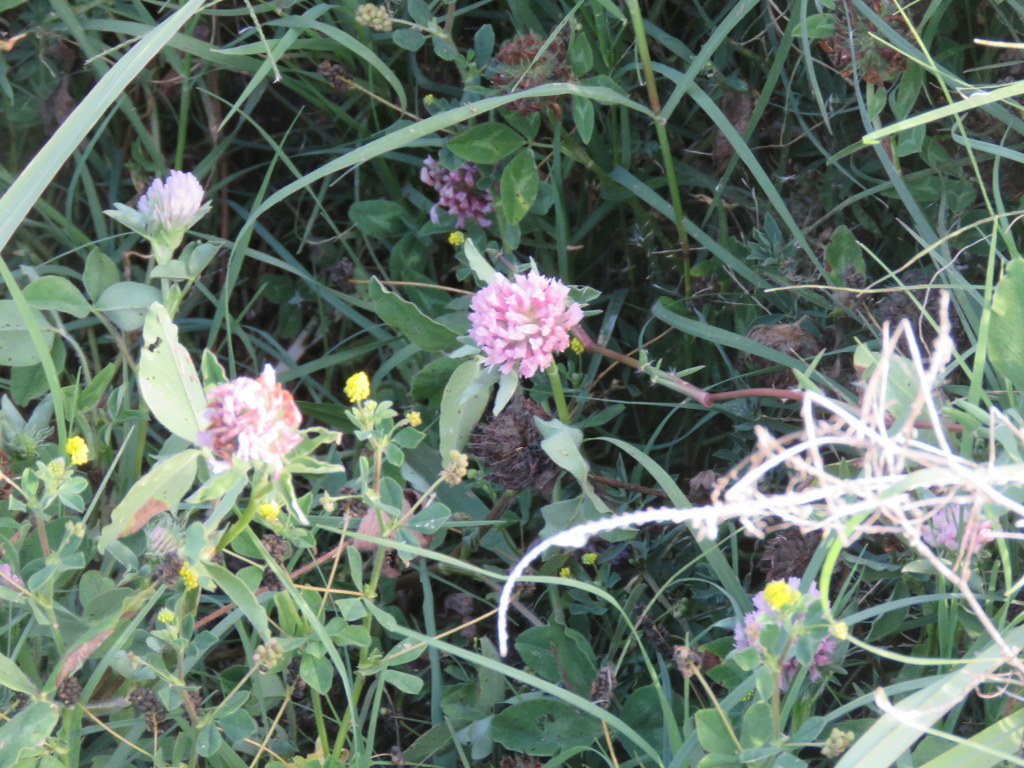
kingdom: Plantae
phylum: Tracheophyta
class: Magnoliopsida
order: Fabales
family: Fabaceae
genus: Trifolium
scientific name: Trifolium pratense
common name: Red clover
